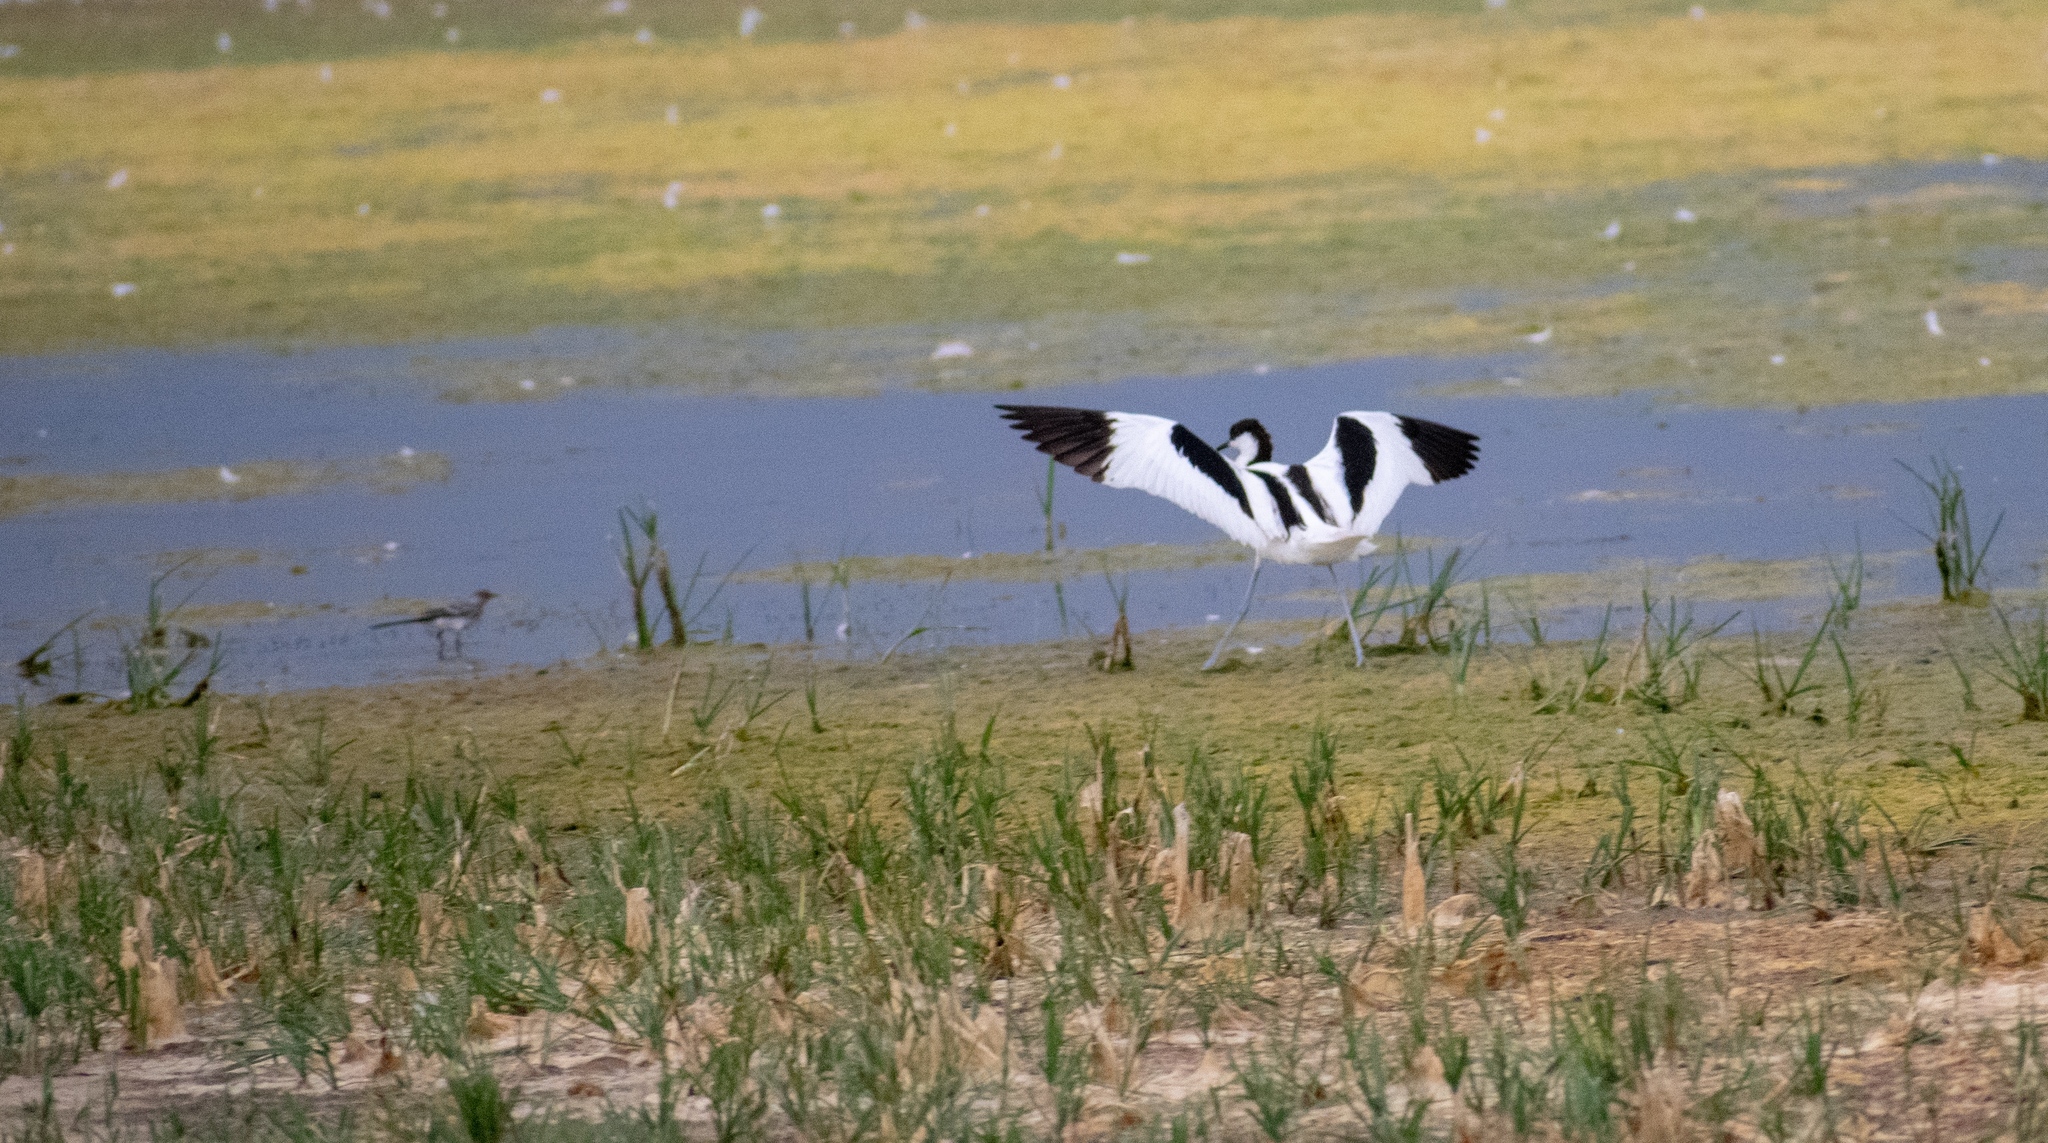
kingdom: Animalia
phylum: Chordata
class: Aves
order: Charadriiformes
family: Recurvirostridae
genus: Recurvirostra
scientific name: Recurvirostra avosetta
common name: Pied avocet
